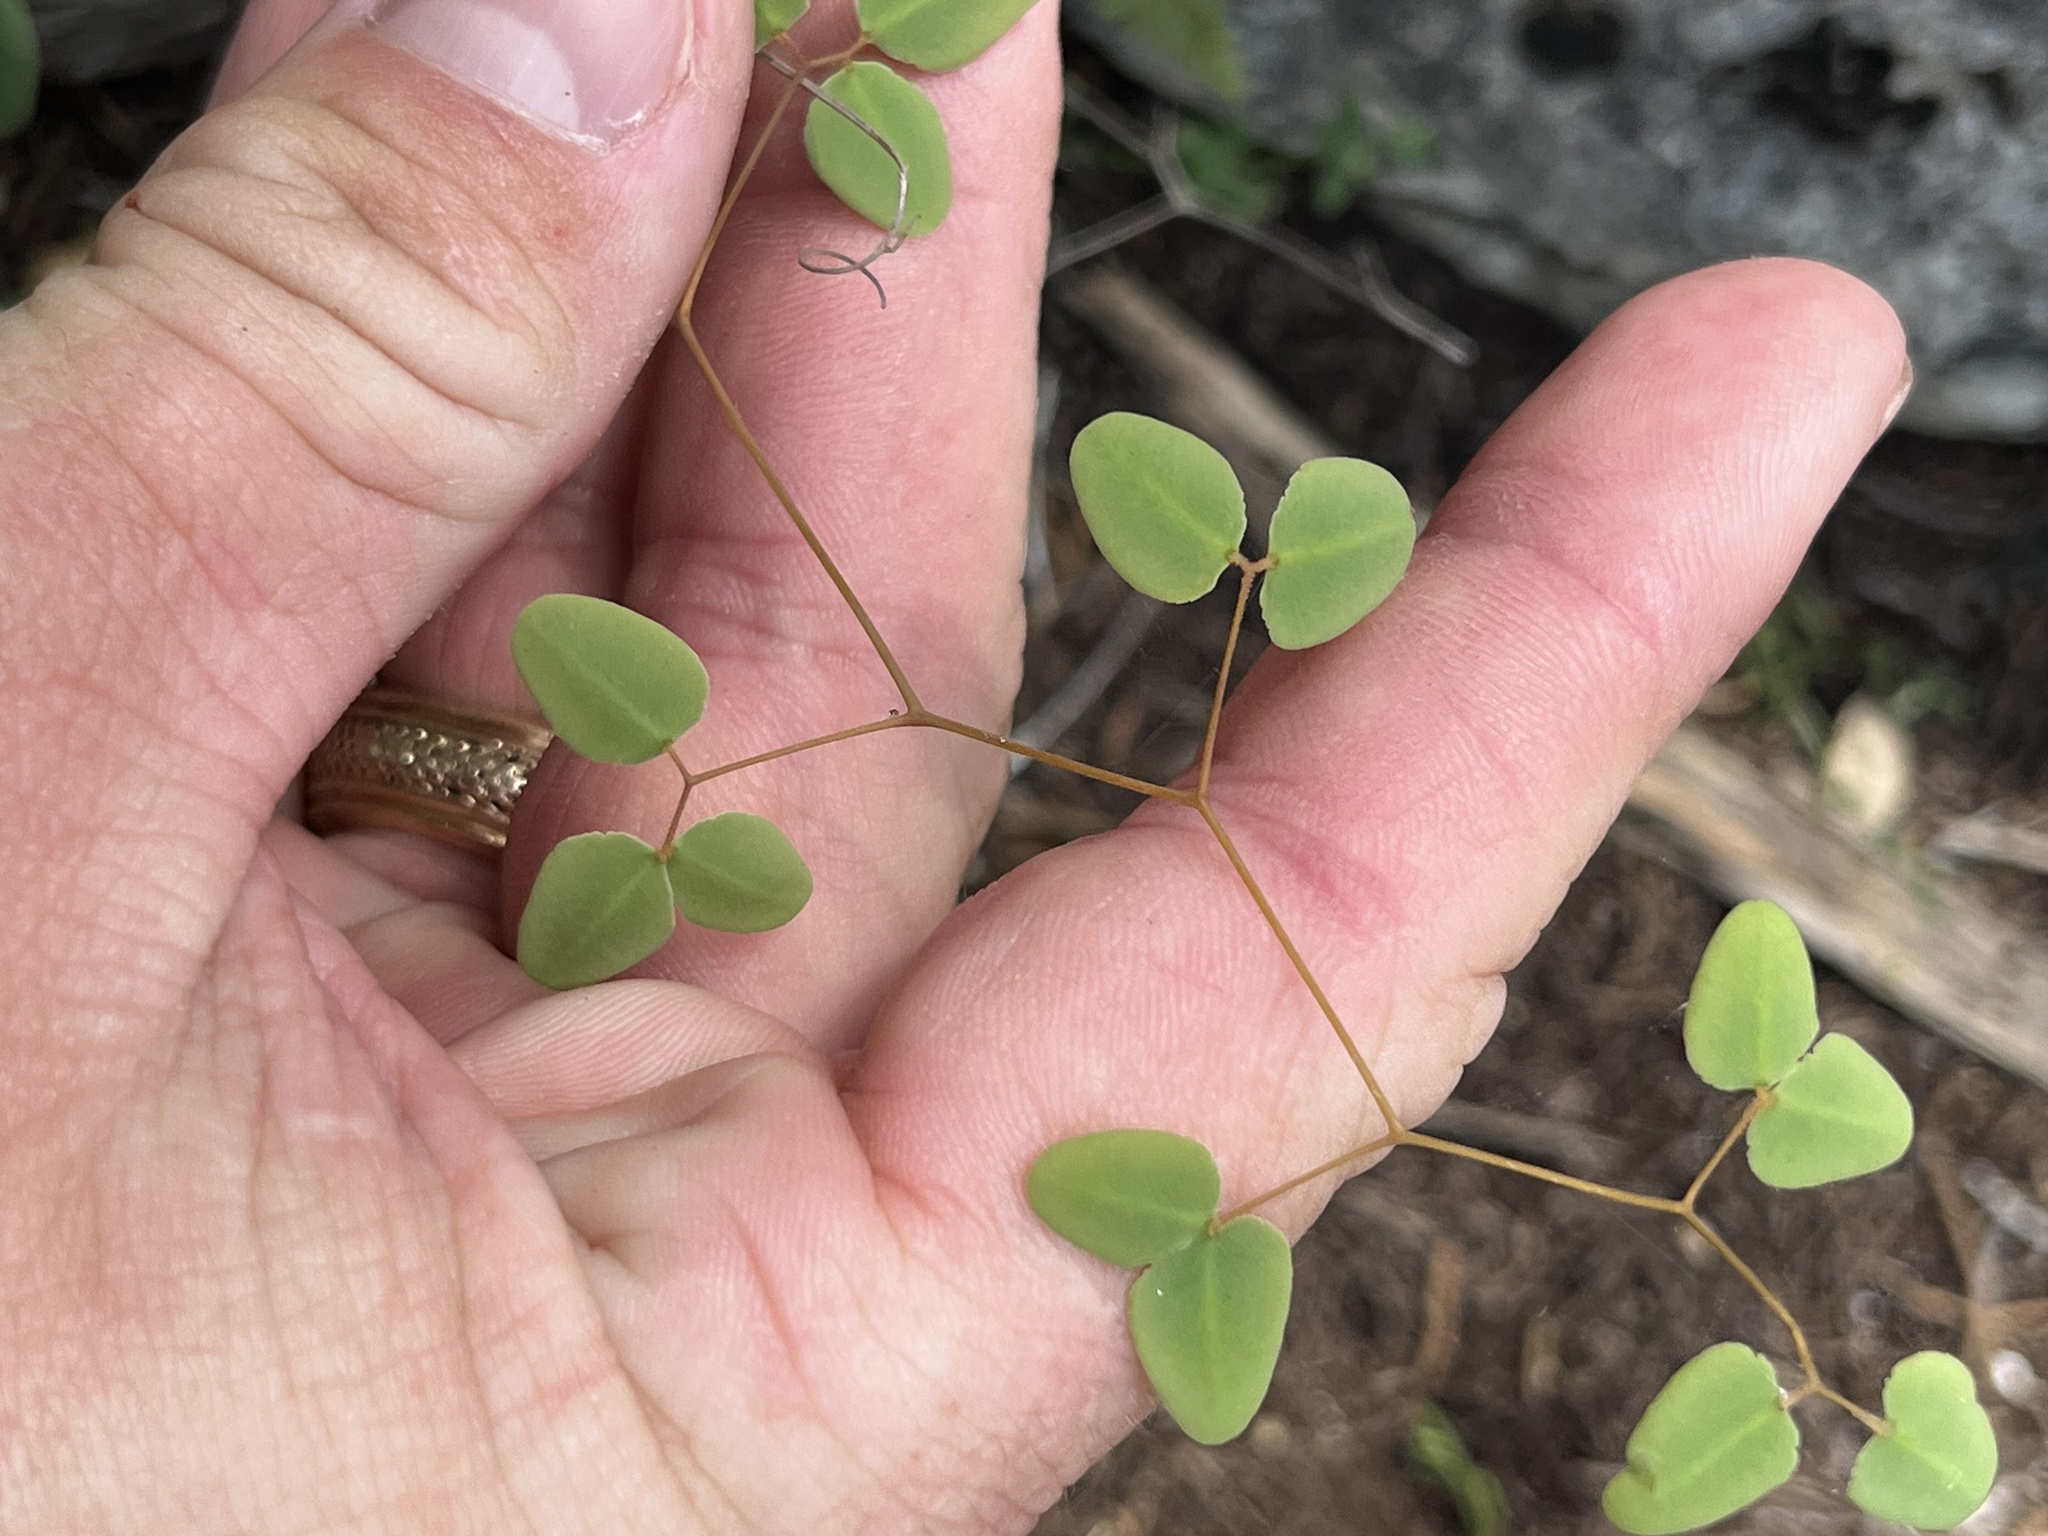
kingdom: Plantae
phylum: Tracheophyta
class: Polypodiopsida
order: Polypodiales
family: Pteridaceae
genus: Pellaea
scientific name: Pellaea ovata
